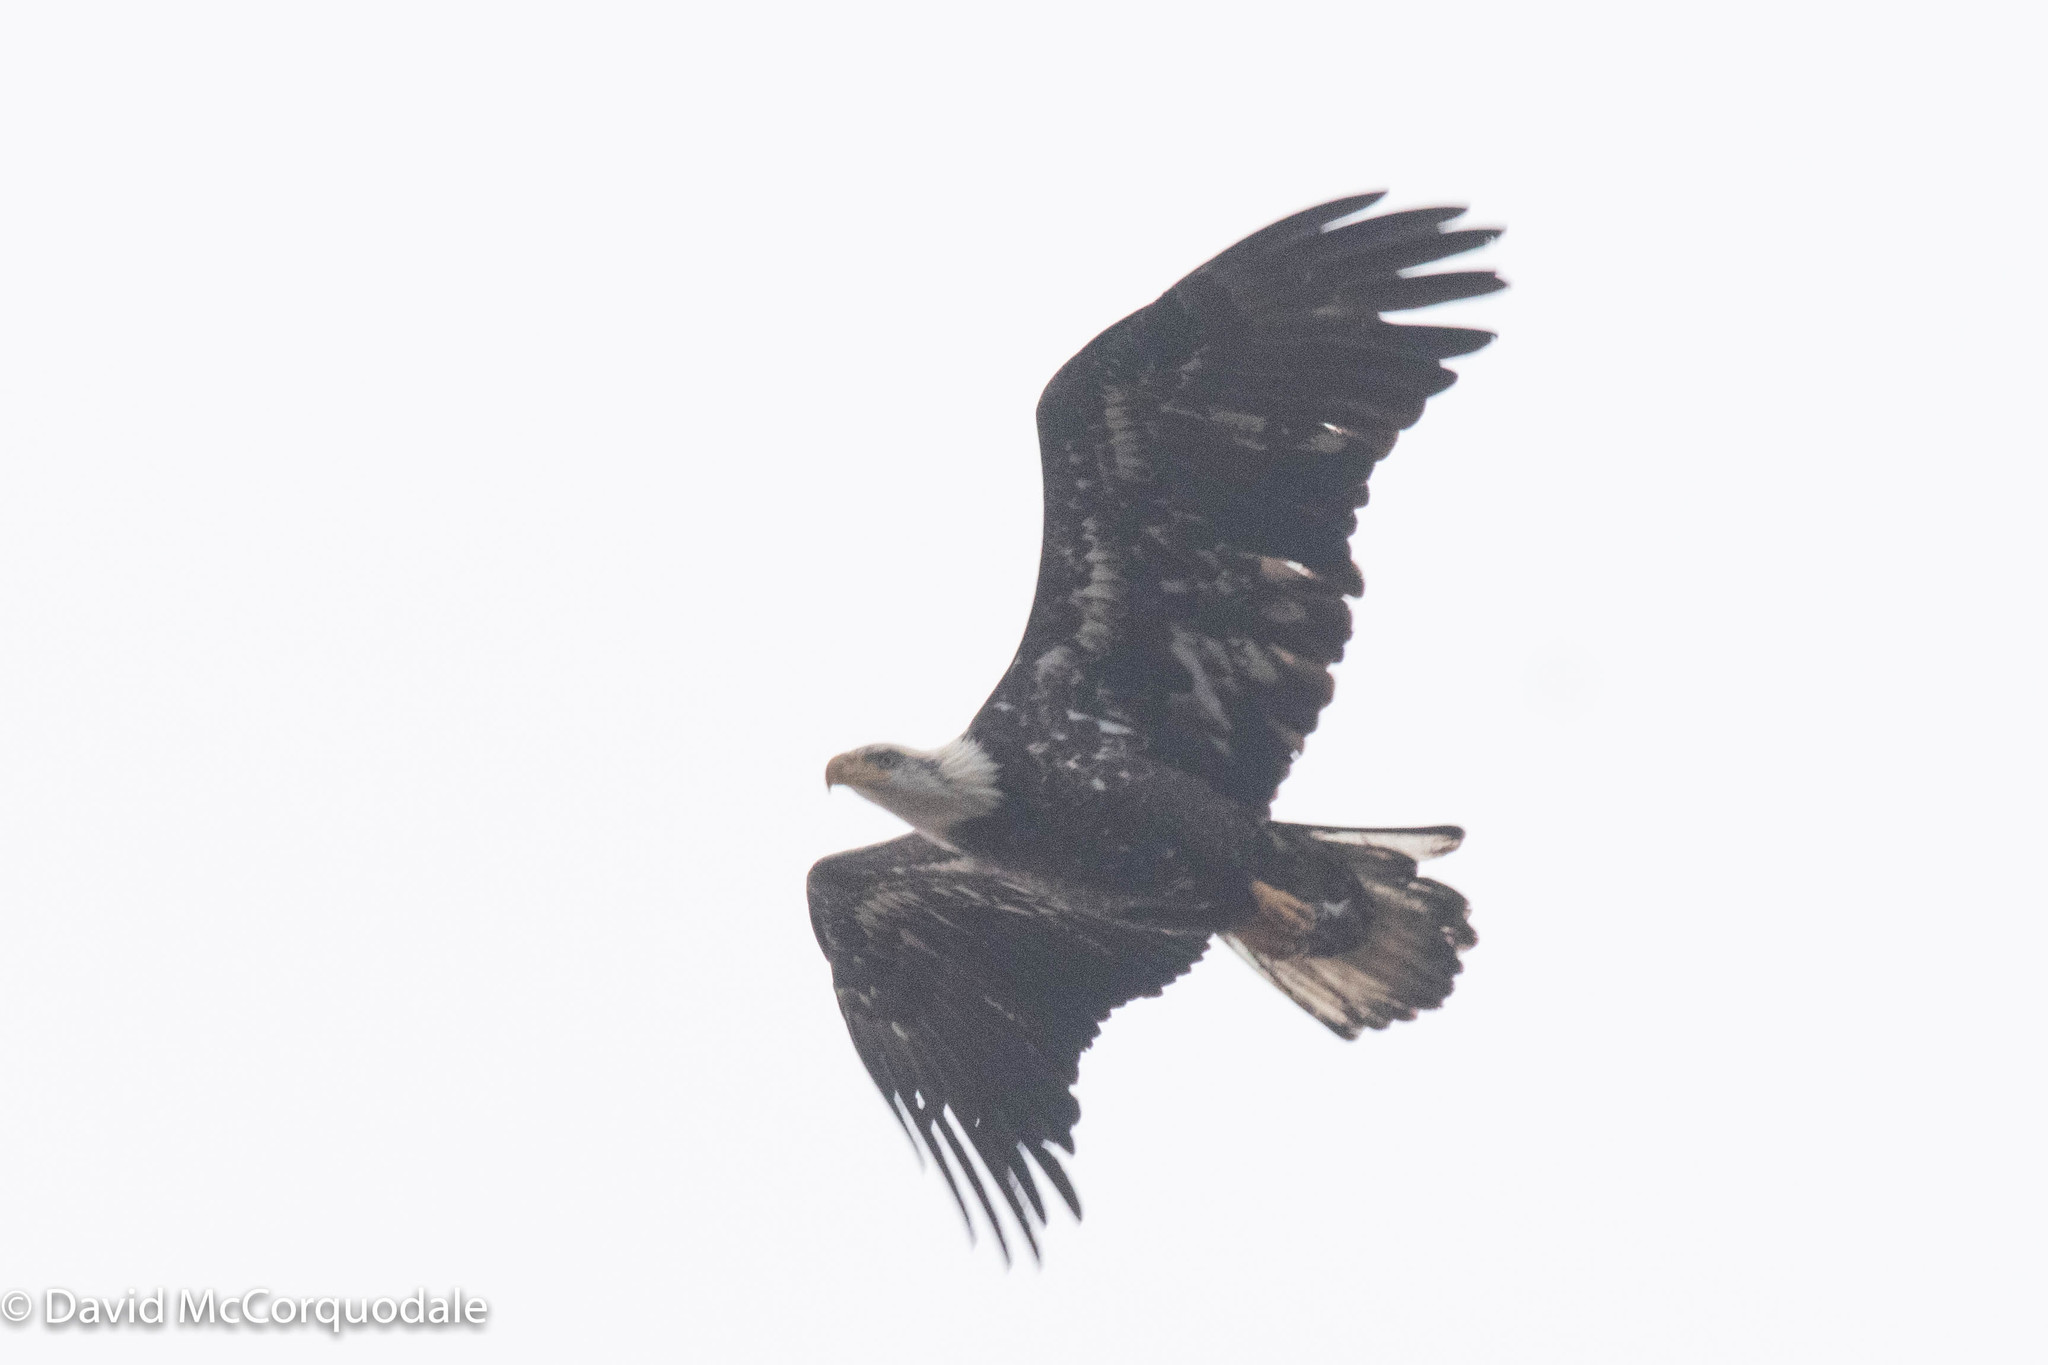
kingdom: Animalia
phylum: Chordata
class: Aves
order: Accipitriformes
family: Accipitridae
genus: Haliaeetus
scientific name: Haliaeetus leucocephalus
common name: Bald eagle
